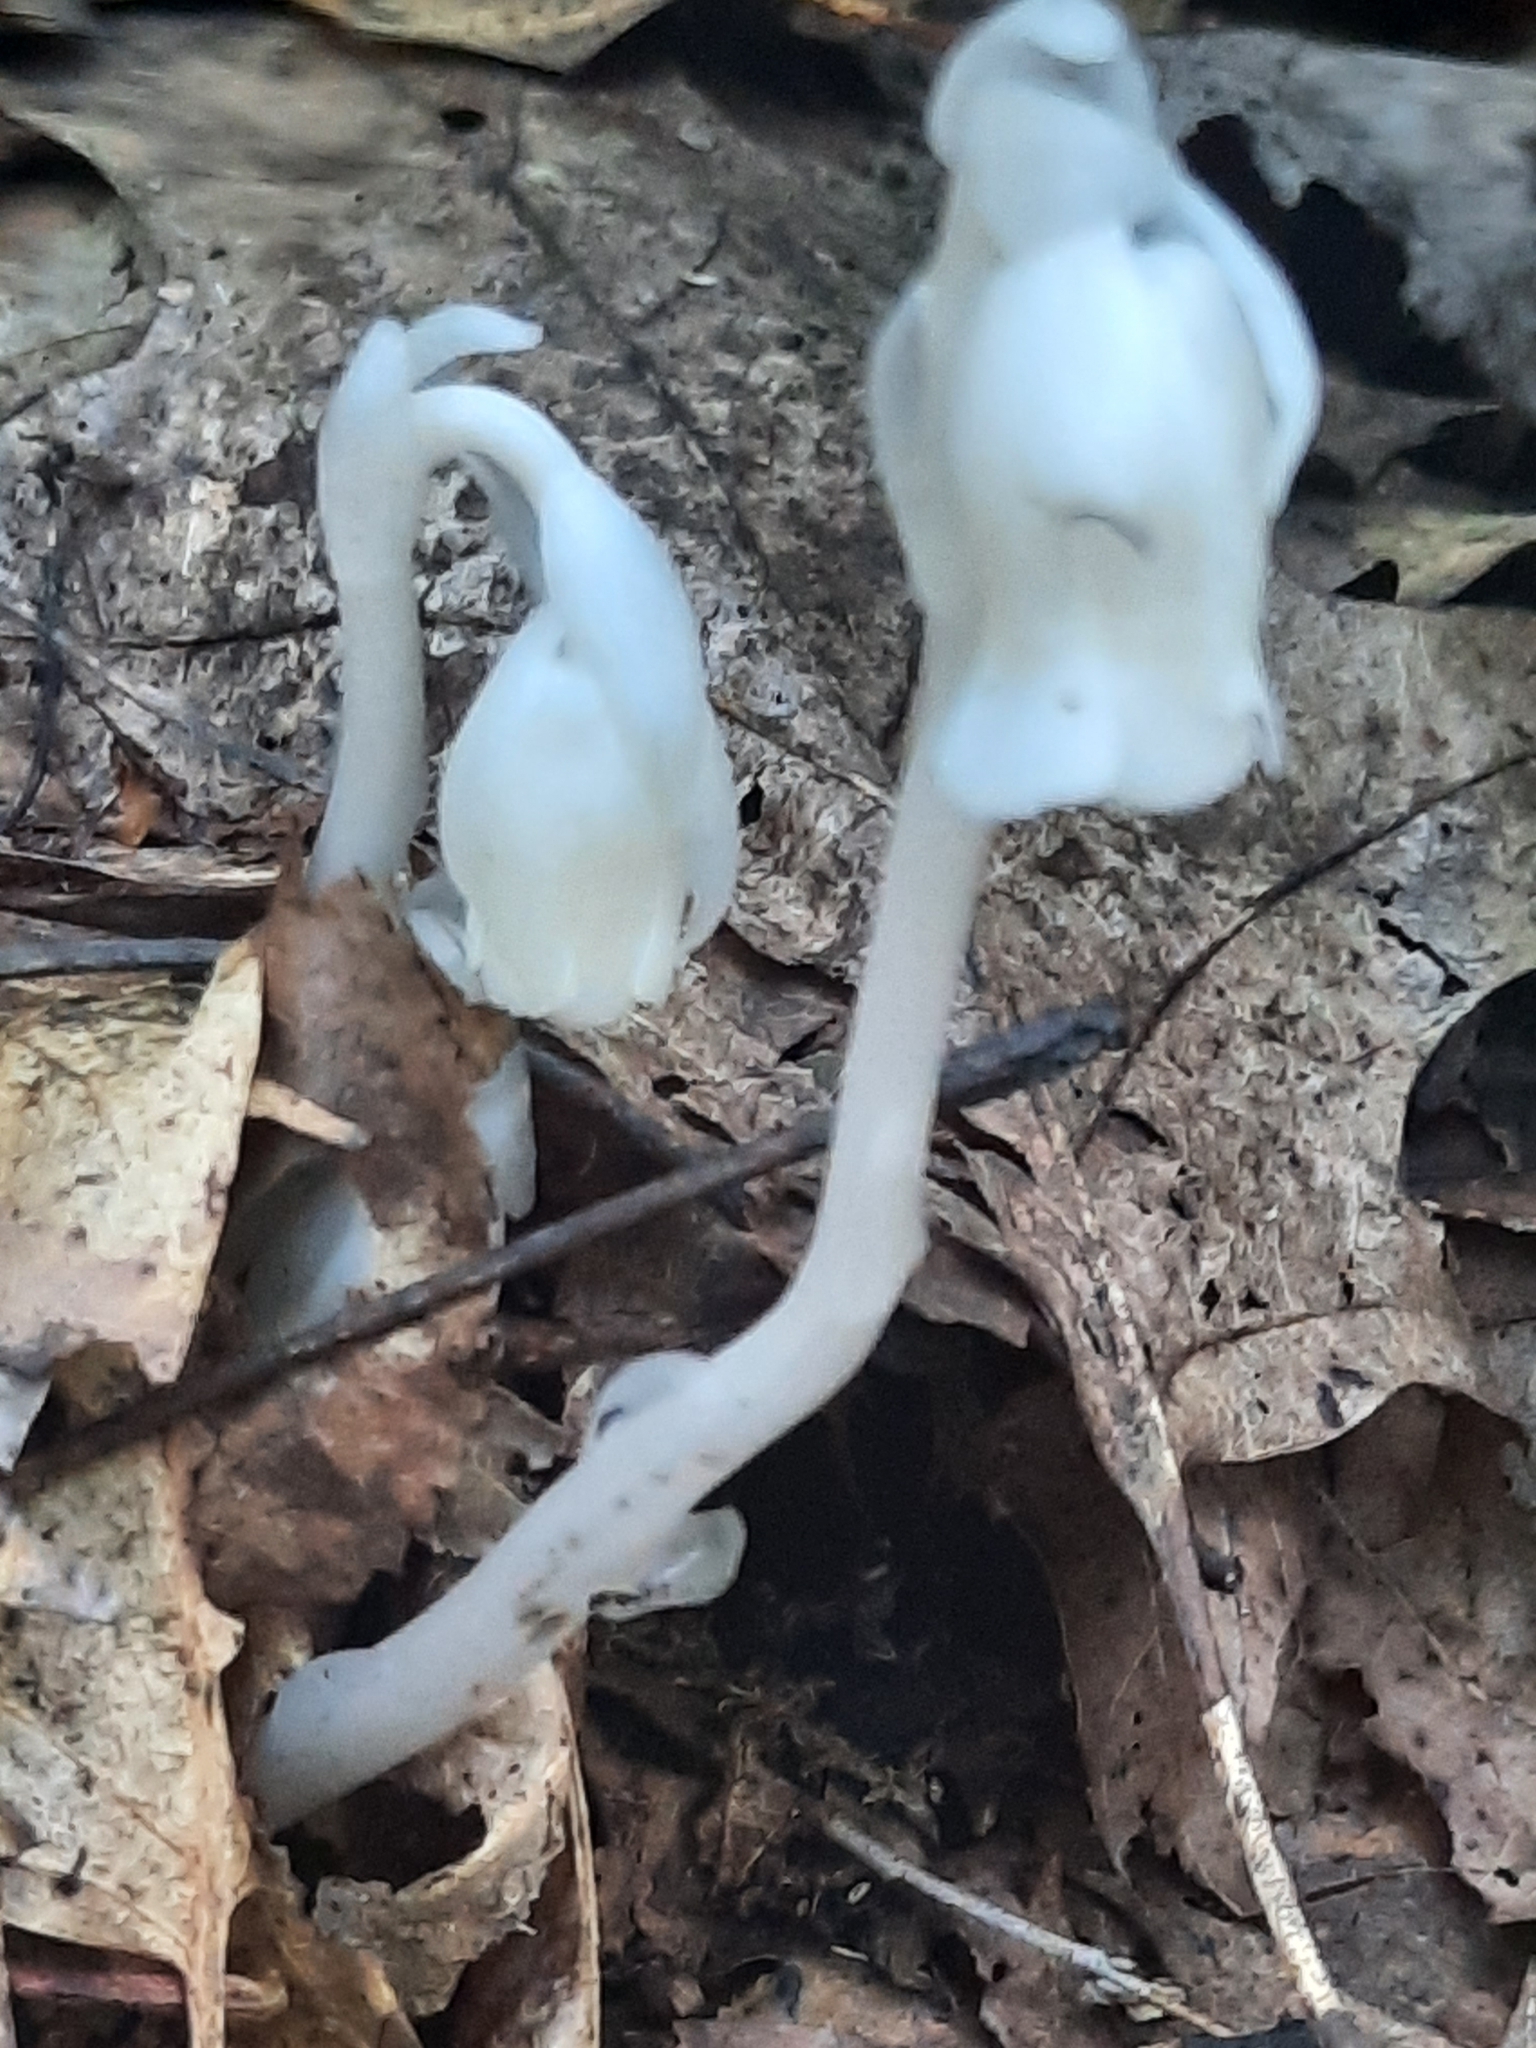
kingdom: Plantae
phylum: Tracheophyta
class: Magnoliopsida
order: Ericales
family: Ericaceae
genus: Monotropa
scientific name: Monotropa uniflora
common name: Convulsion root
